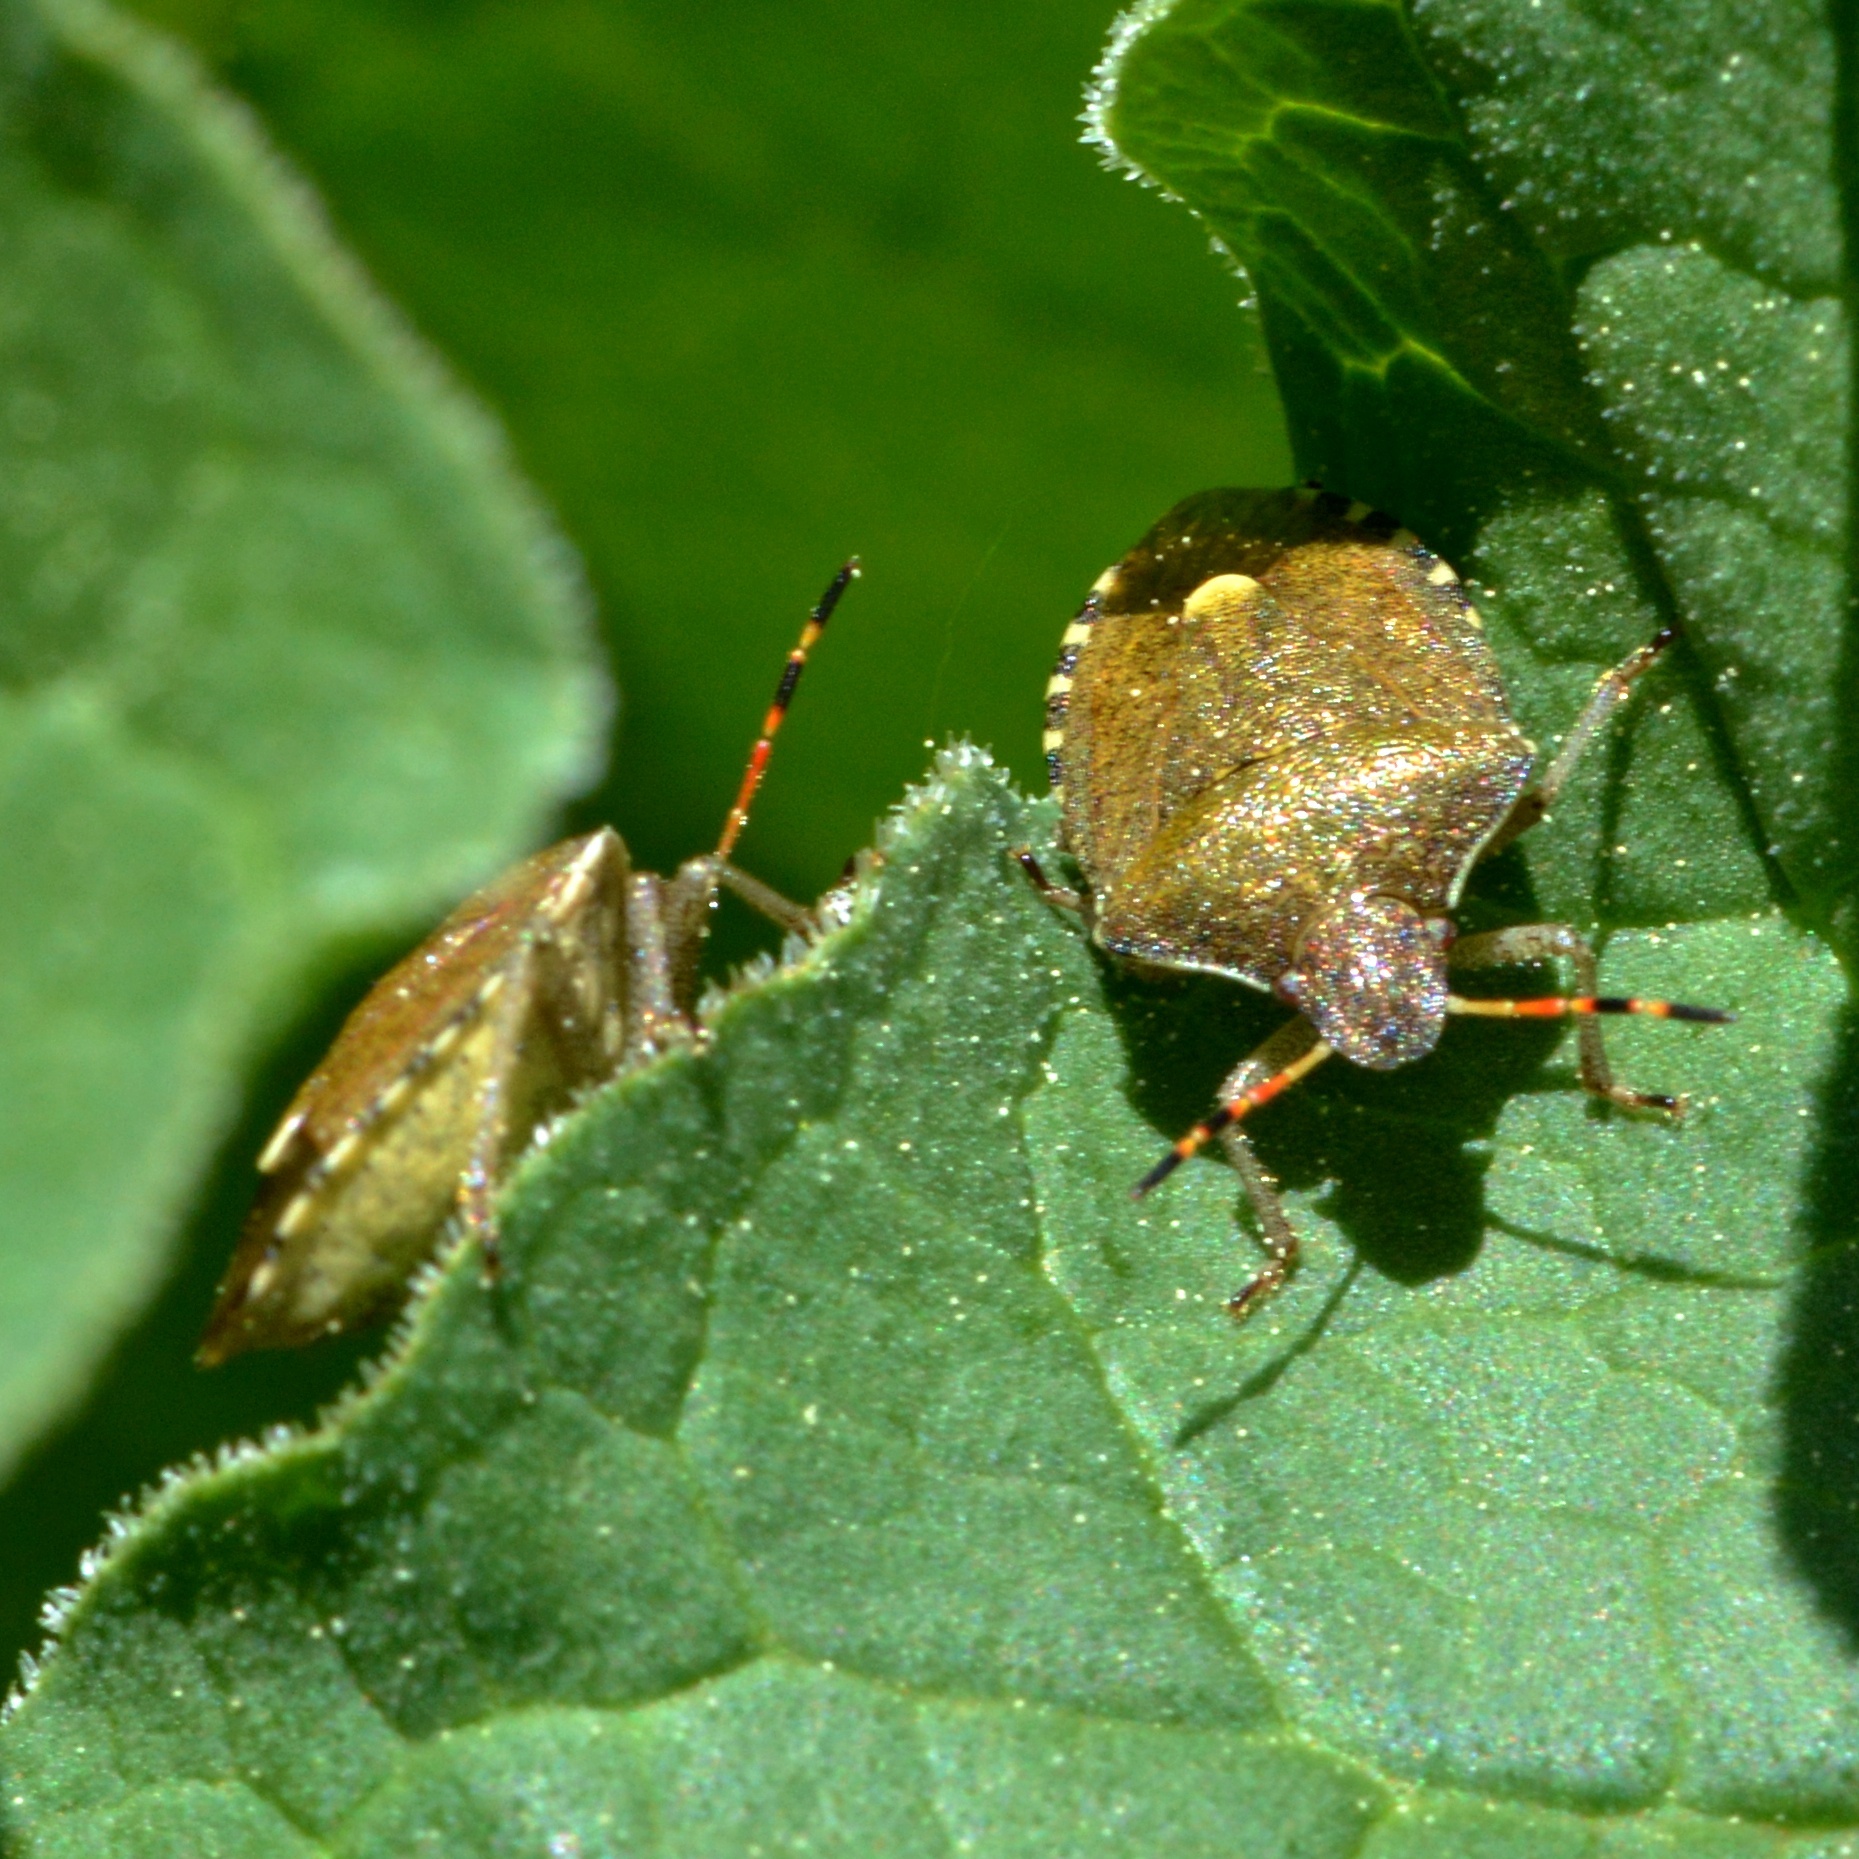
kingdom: Animalia
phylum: Arthropoda
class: Insecta
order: Hemiptera
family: Pentatomidae
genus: Holcostethus
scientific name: Holcostethus strictus
